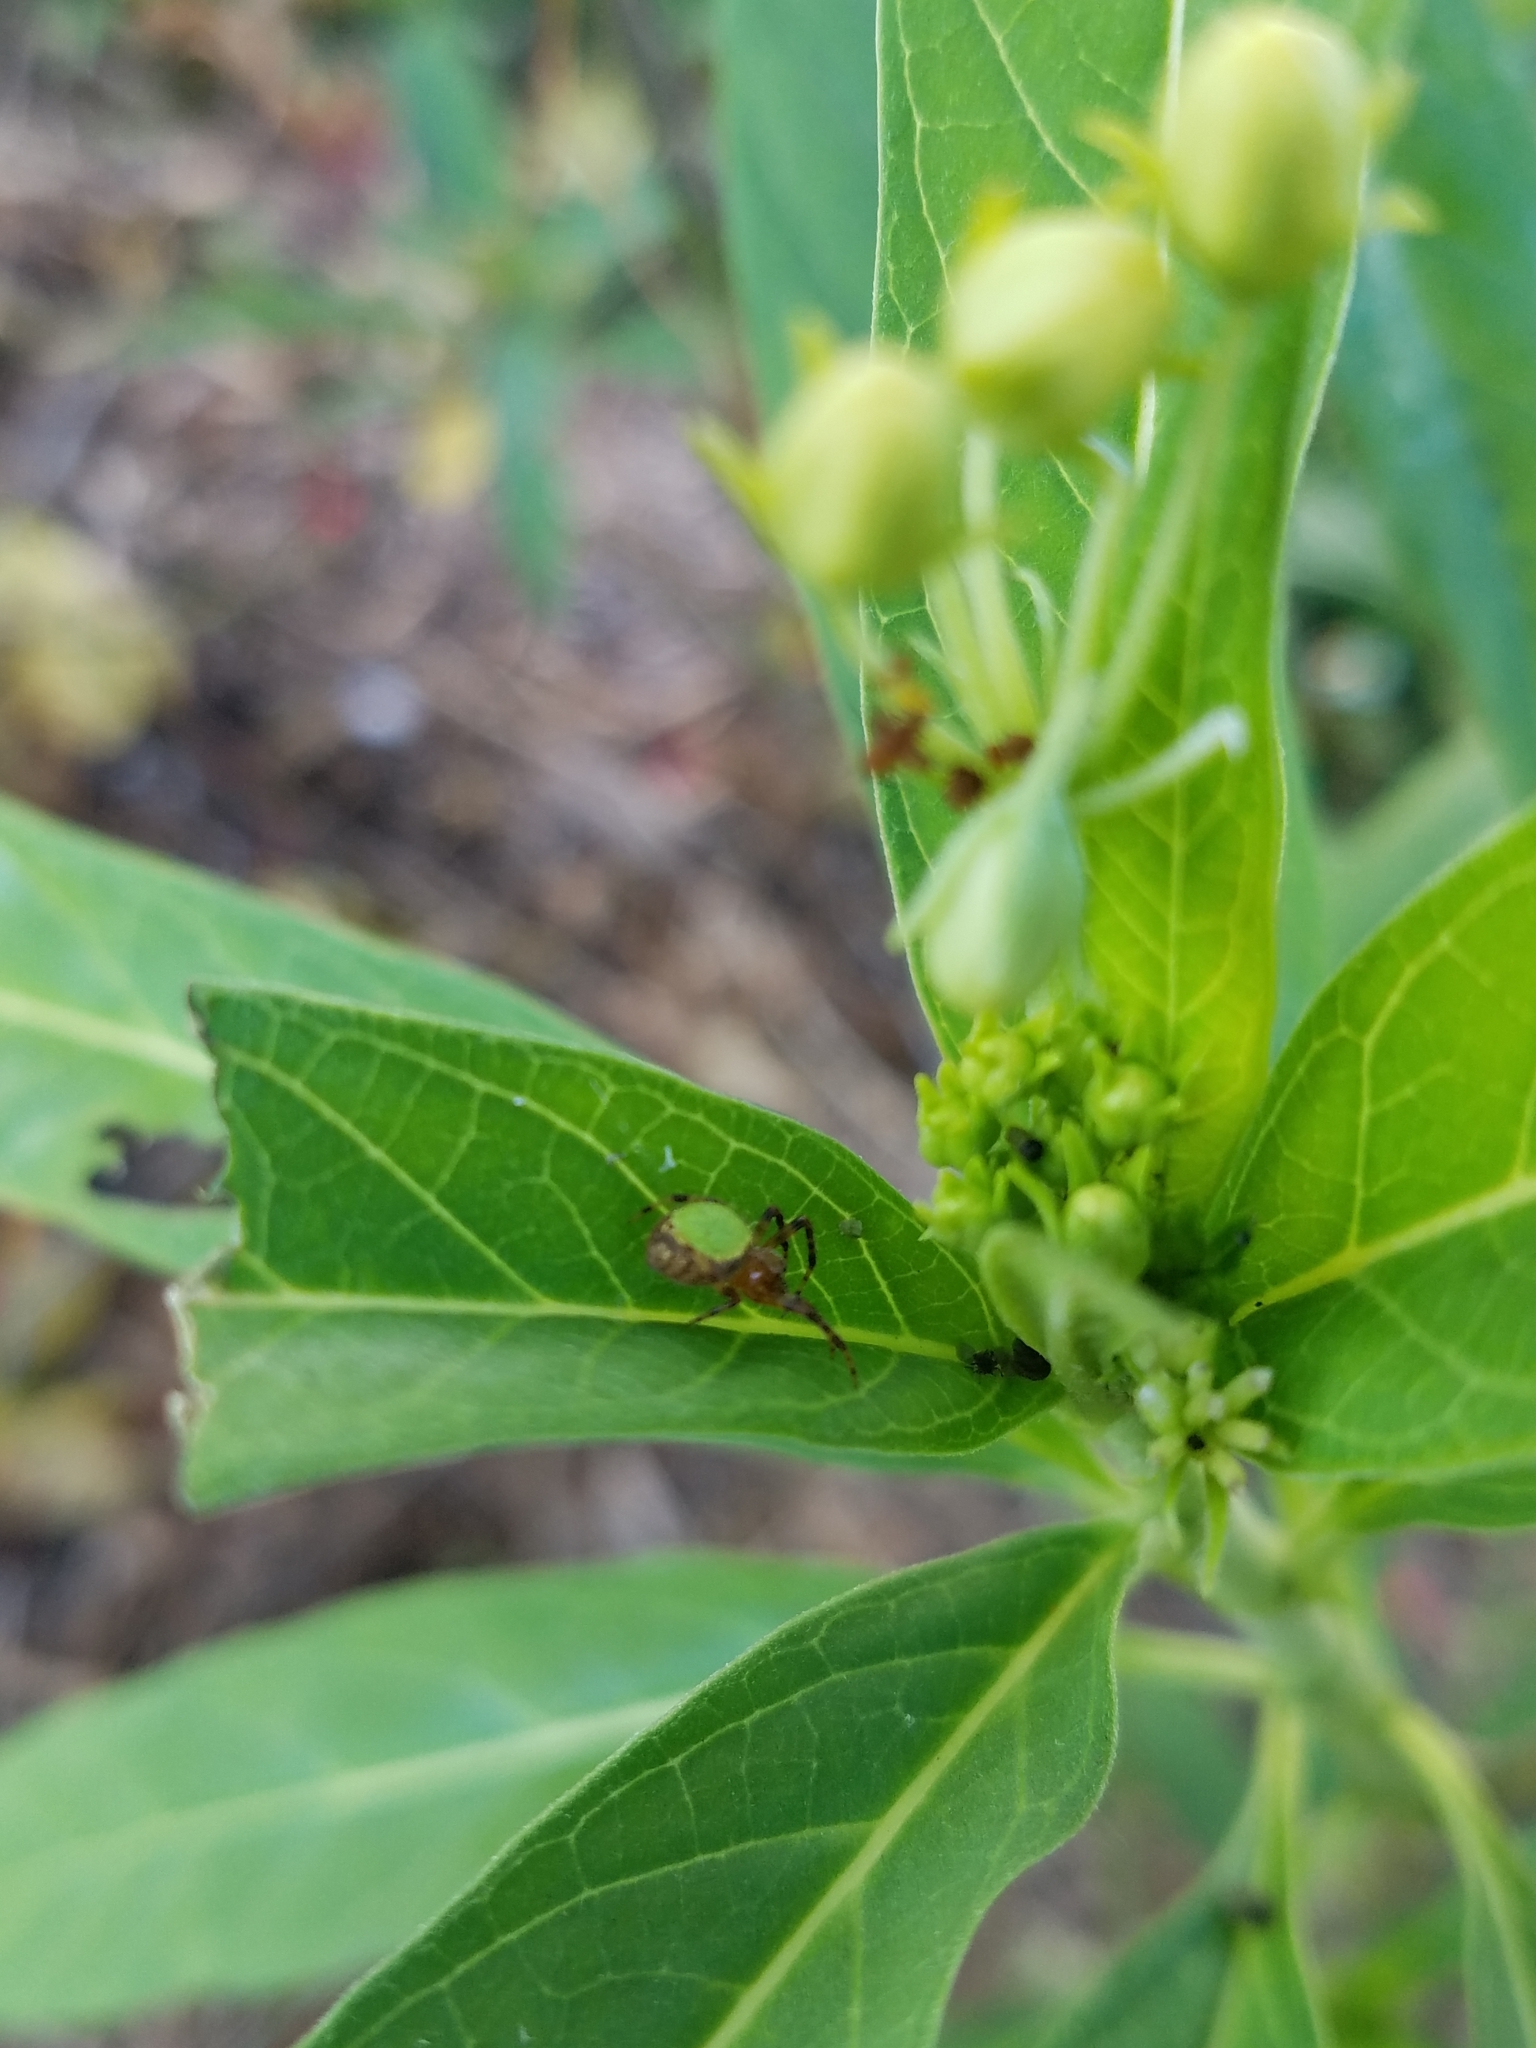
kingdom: Animalia
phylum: Arthropoda
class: Arachnida
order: Araneae
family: Araneidae
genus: Eriophora
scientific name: Eriophora ravilla
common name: Orb weavers
